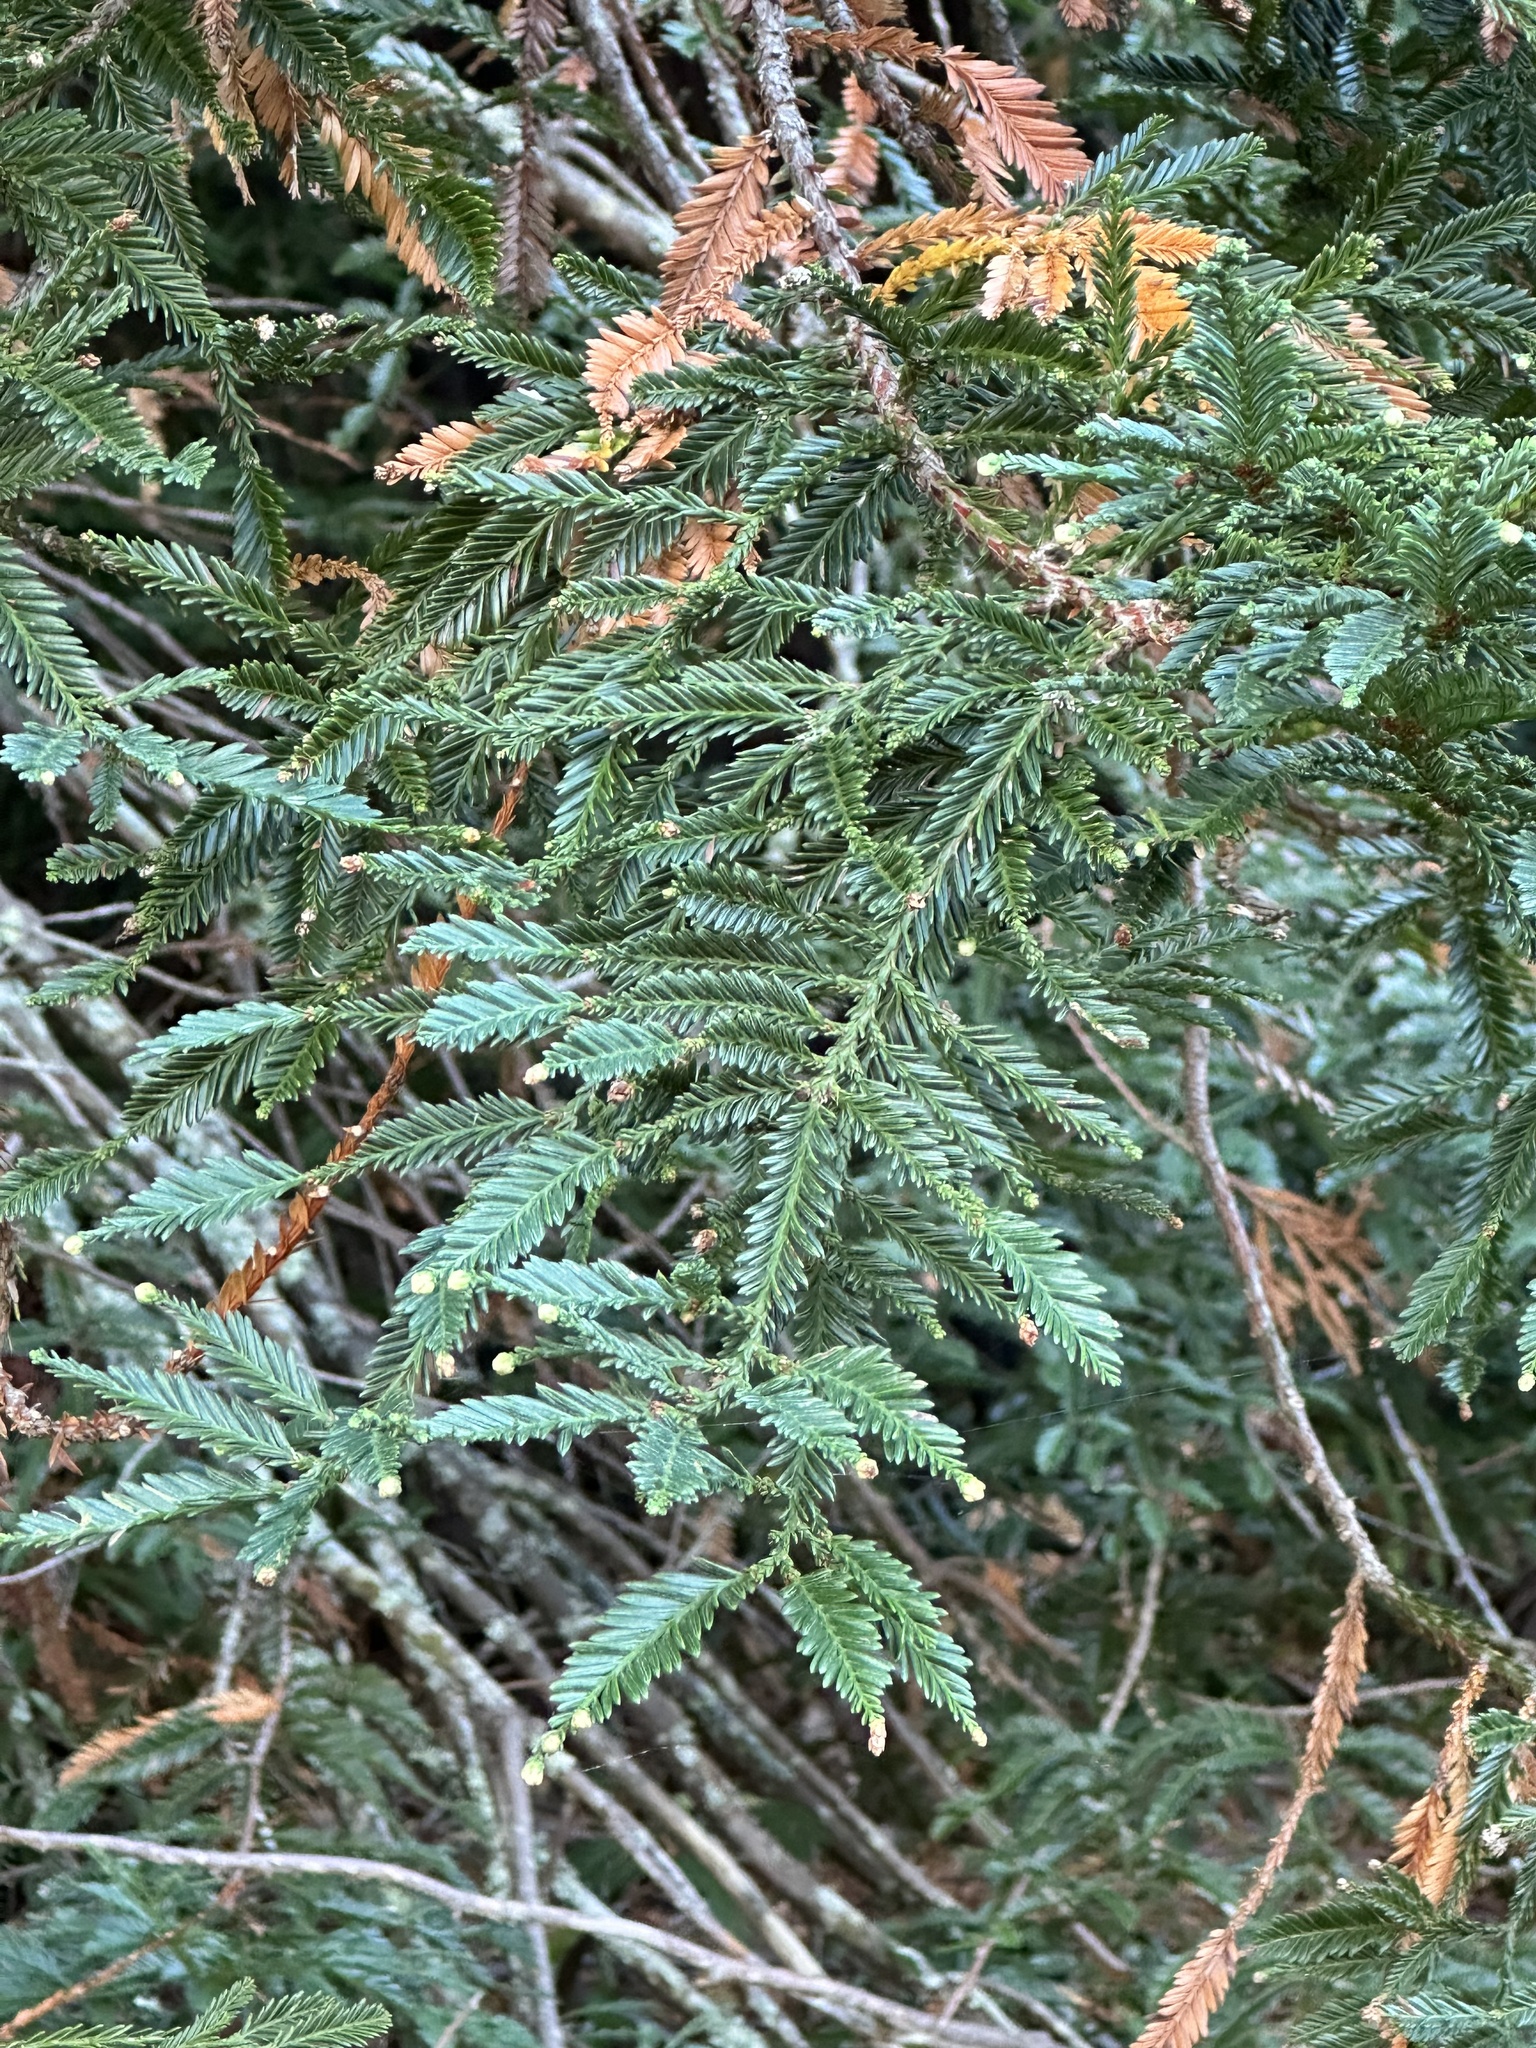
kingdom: Plantae
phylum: Tracheophyta
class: Pinopsida
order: Pinales
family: Cupressaceae
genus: Sequoia
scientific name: Sequoia sempervirens
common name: Coast redwood
